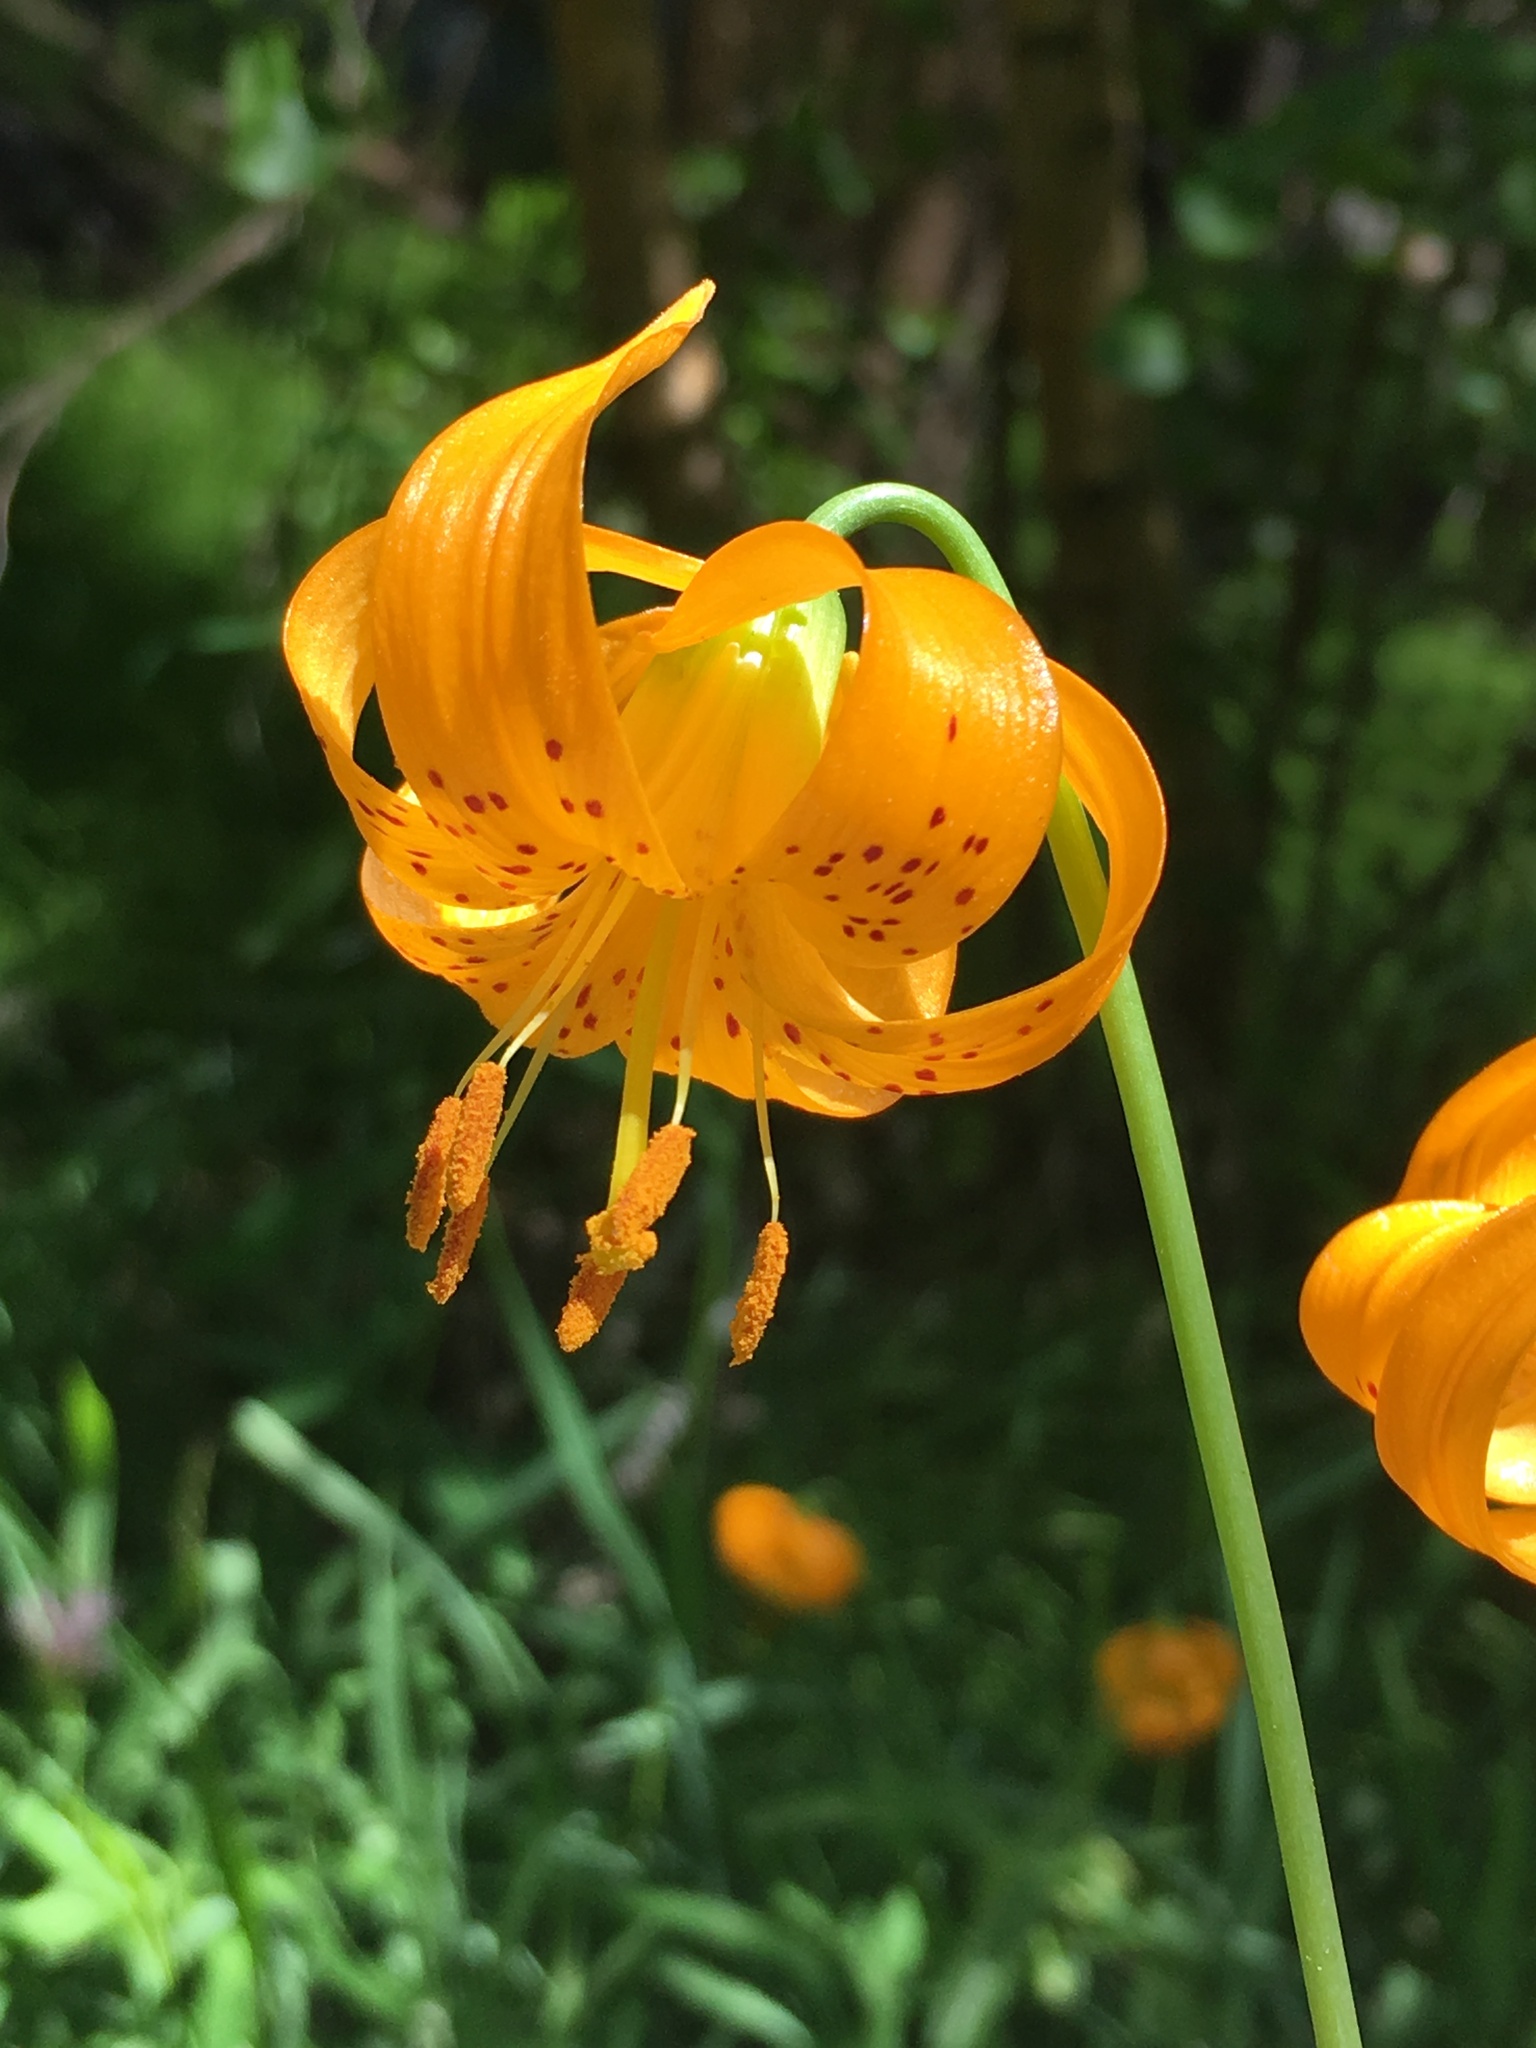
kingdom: Plantae
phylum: Tracheophyta
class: Liliopsida
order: Liliales
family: Liliaceae
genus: Lilium
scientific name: Lilium kelleyanum
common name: Kelley's lily
